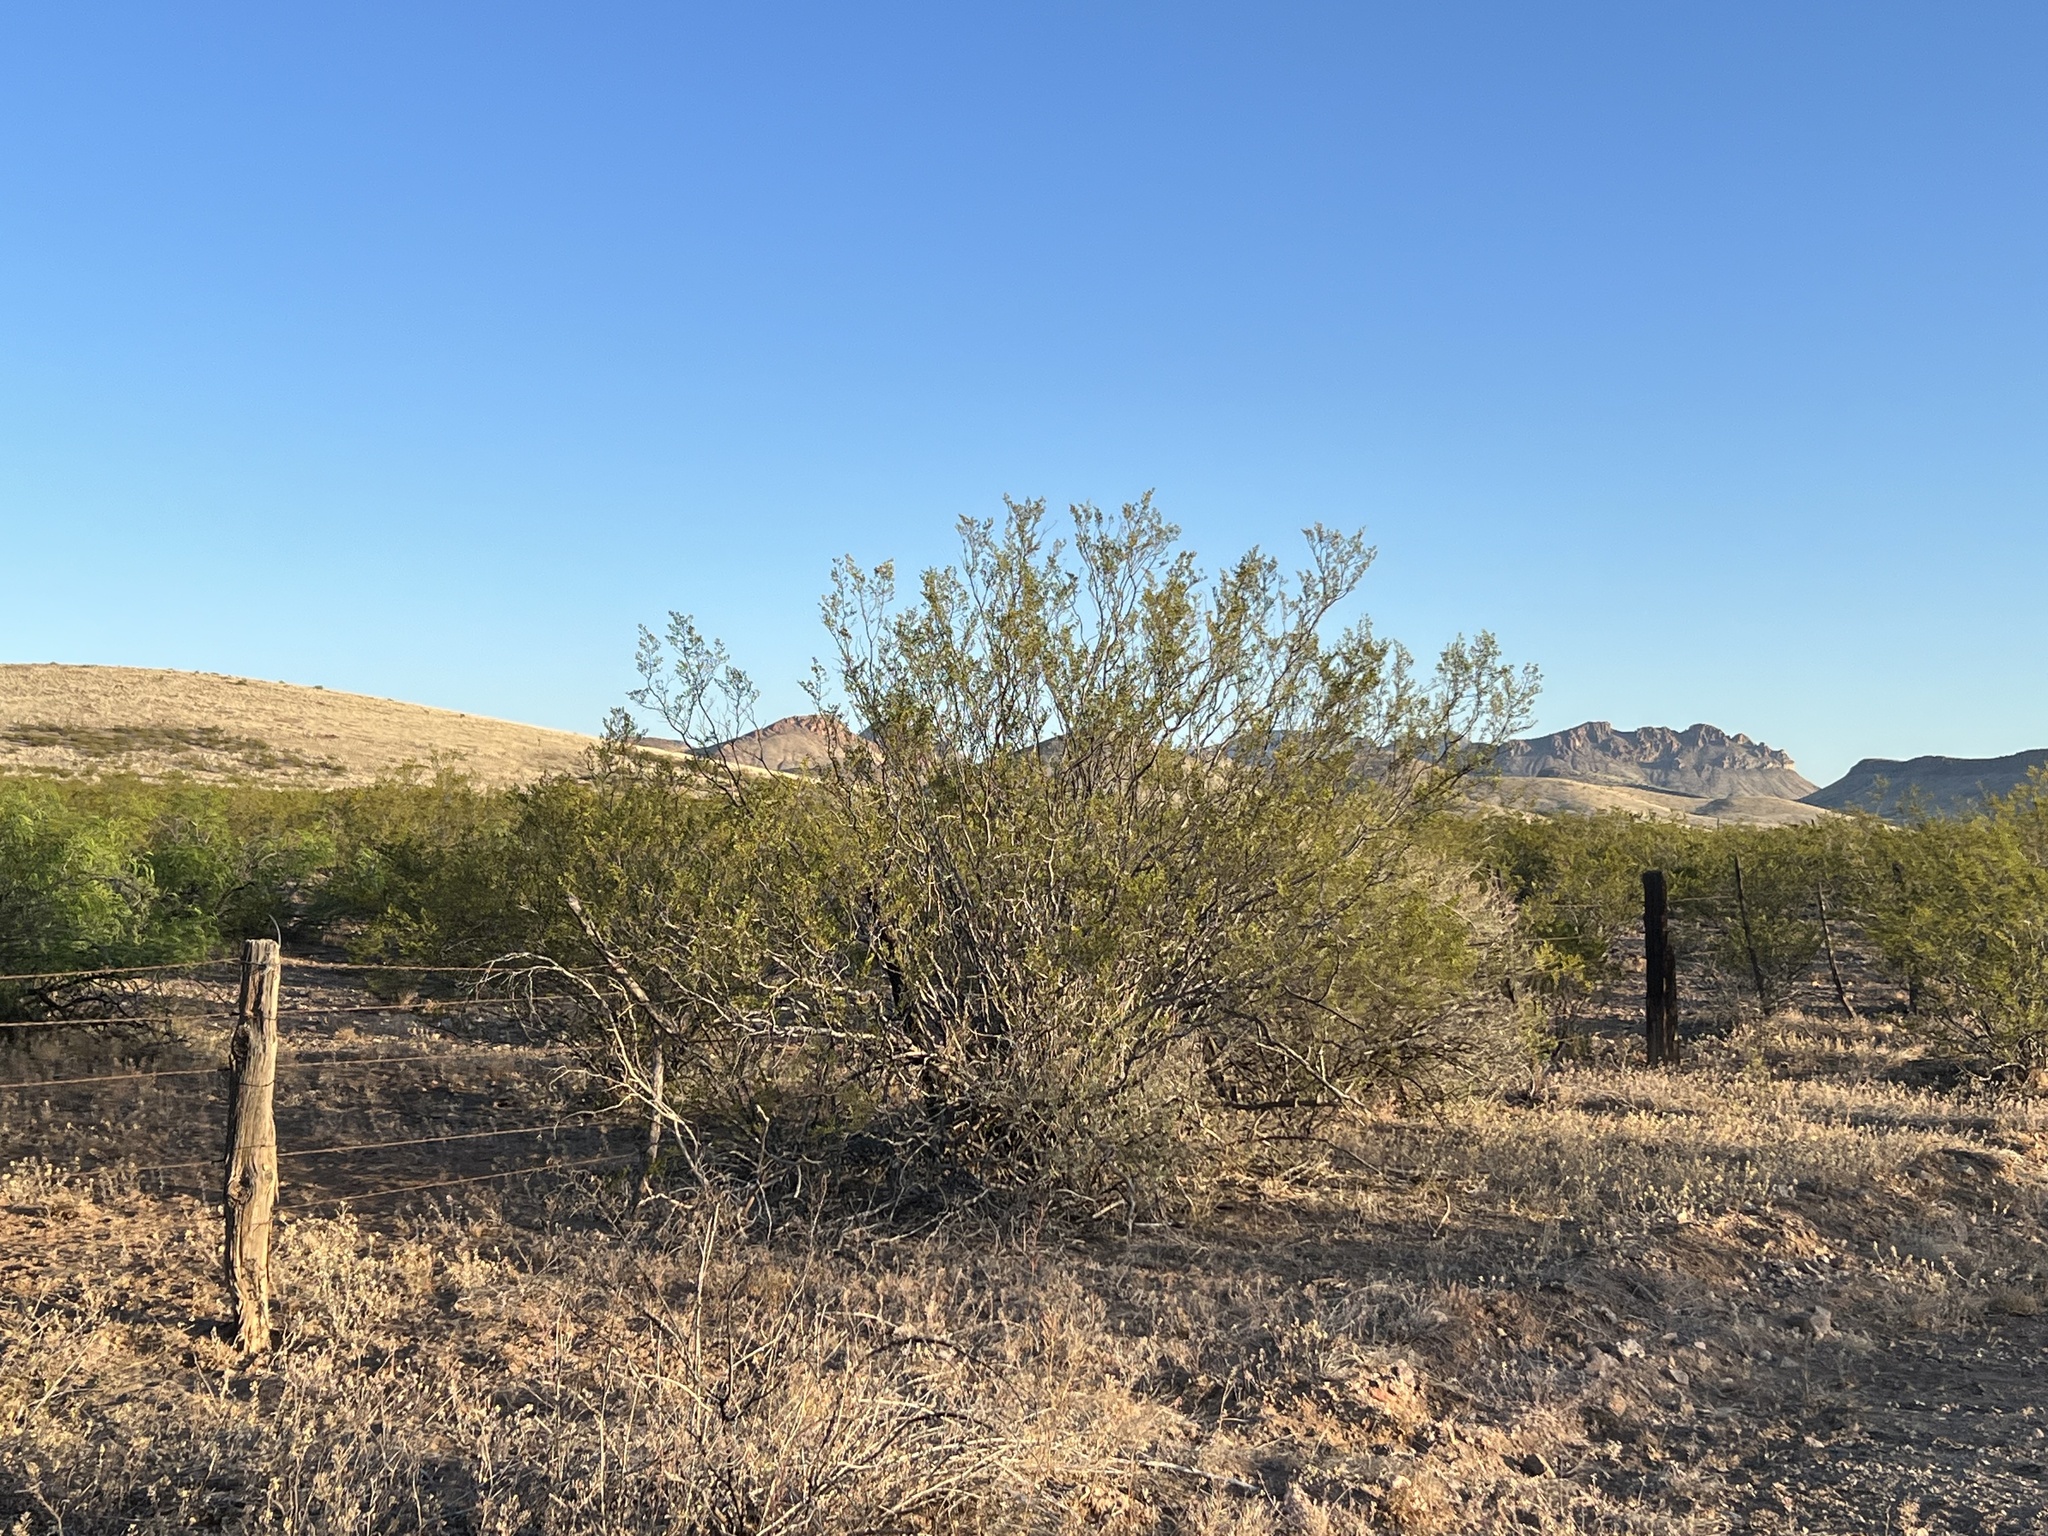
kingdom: Plantae
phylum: Tracheophyta
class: Magnoliopsida
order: Zygophyllales
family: Zygophyllaceae
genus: Larrea
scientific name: Larrea tridentata
